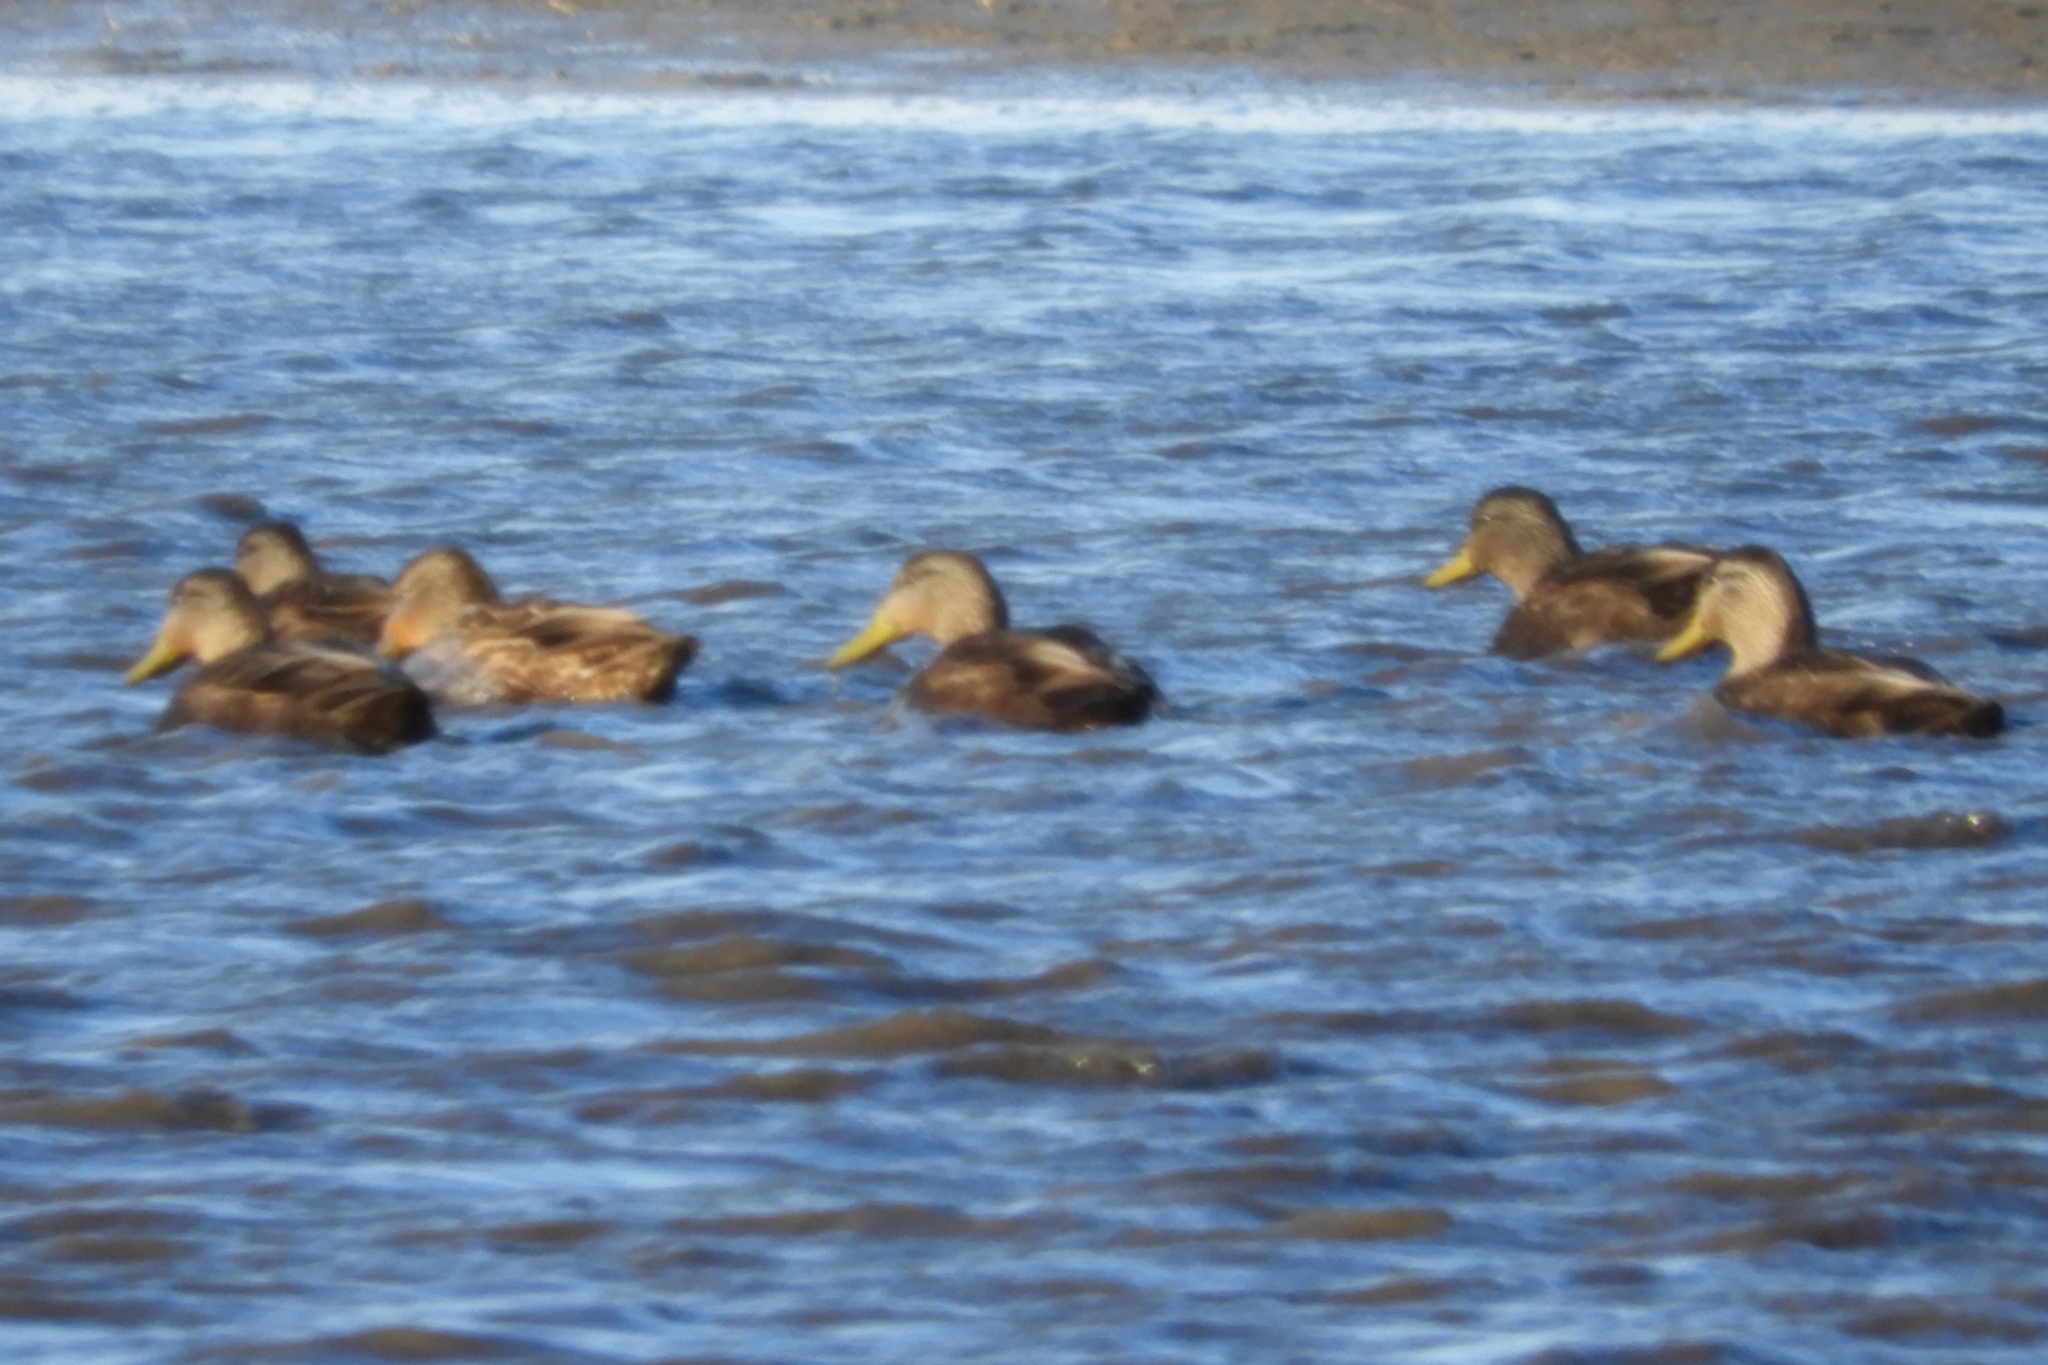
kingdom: Animalia
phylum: Chordata
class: Aves
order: Anseriformes
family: Anatidae
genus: Anas
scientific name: Anas rubripes
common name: American black duck
